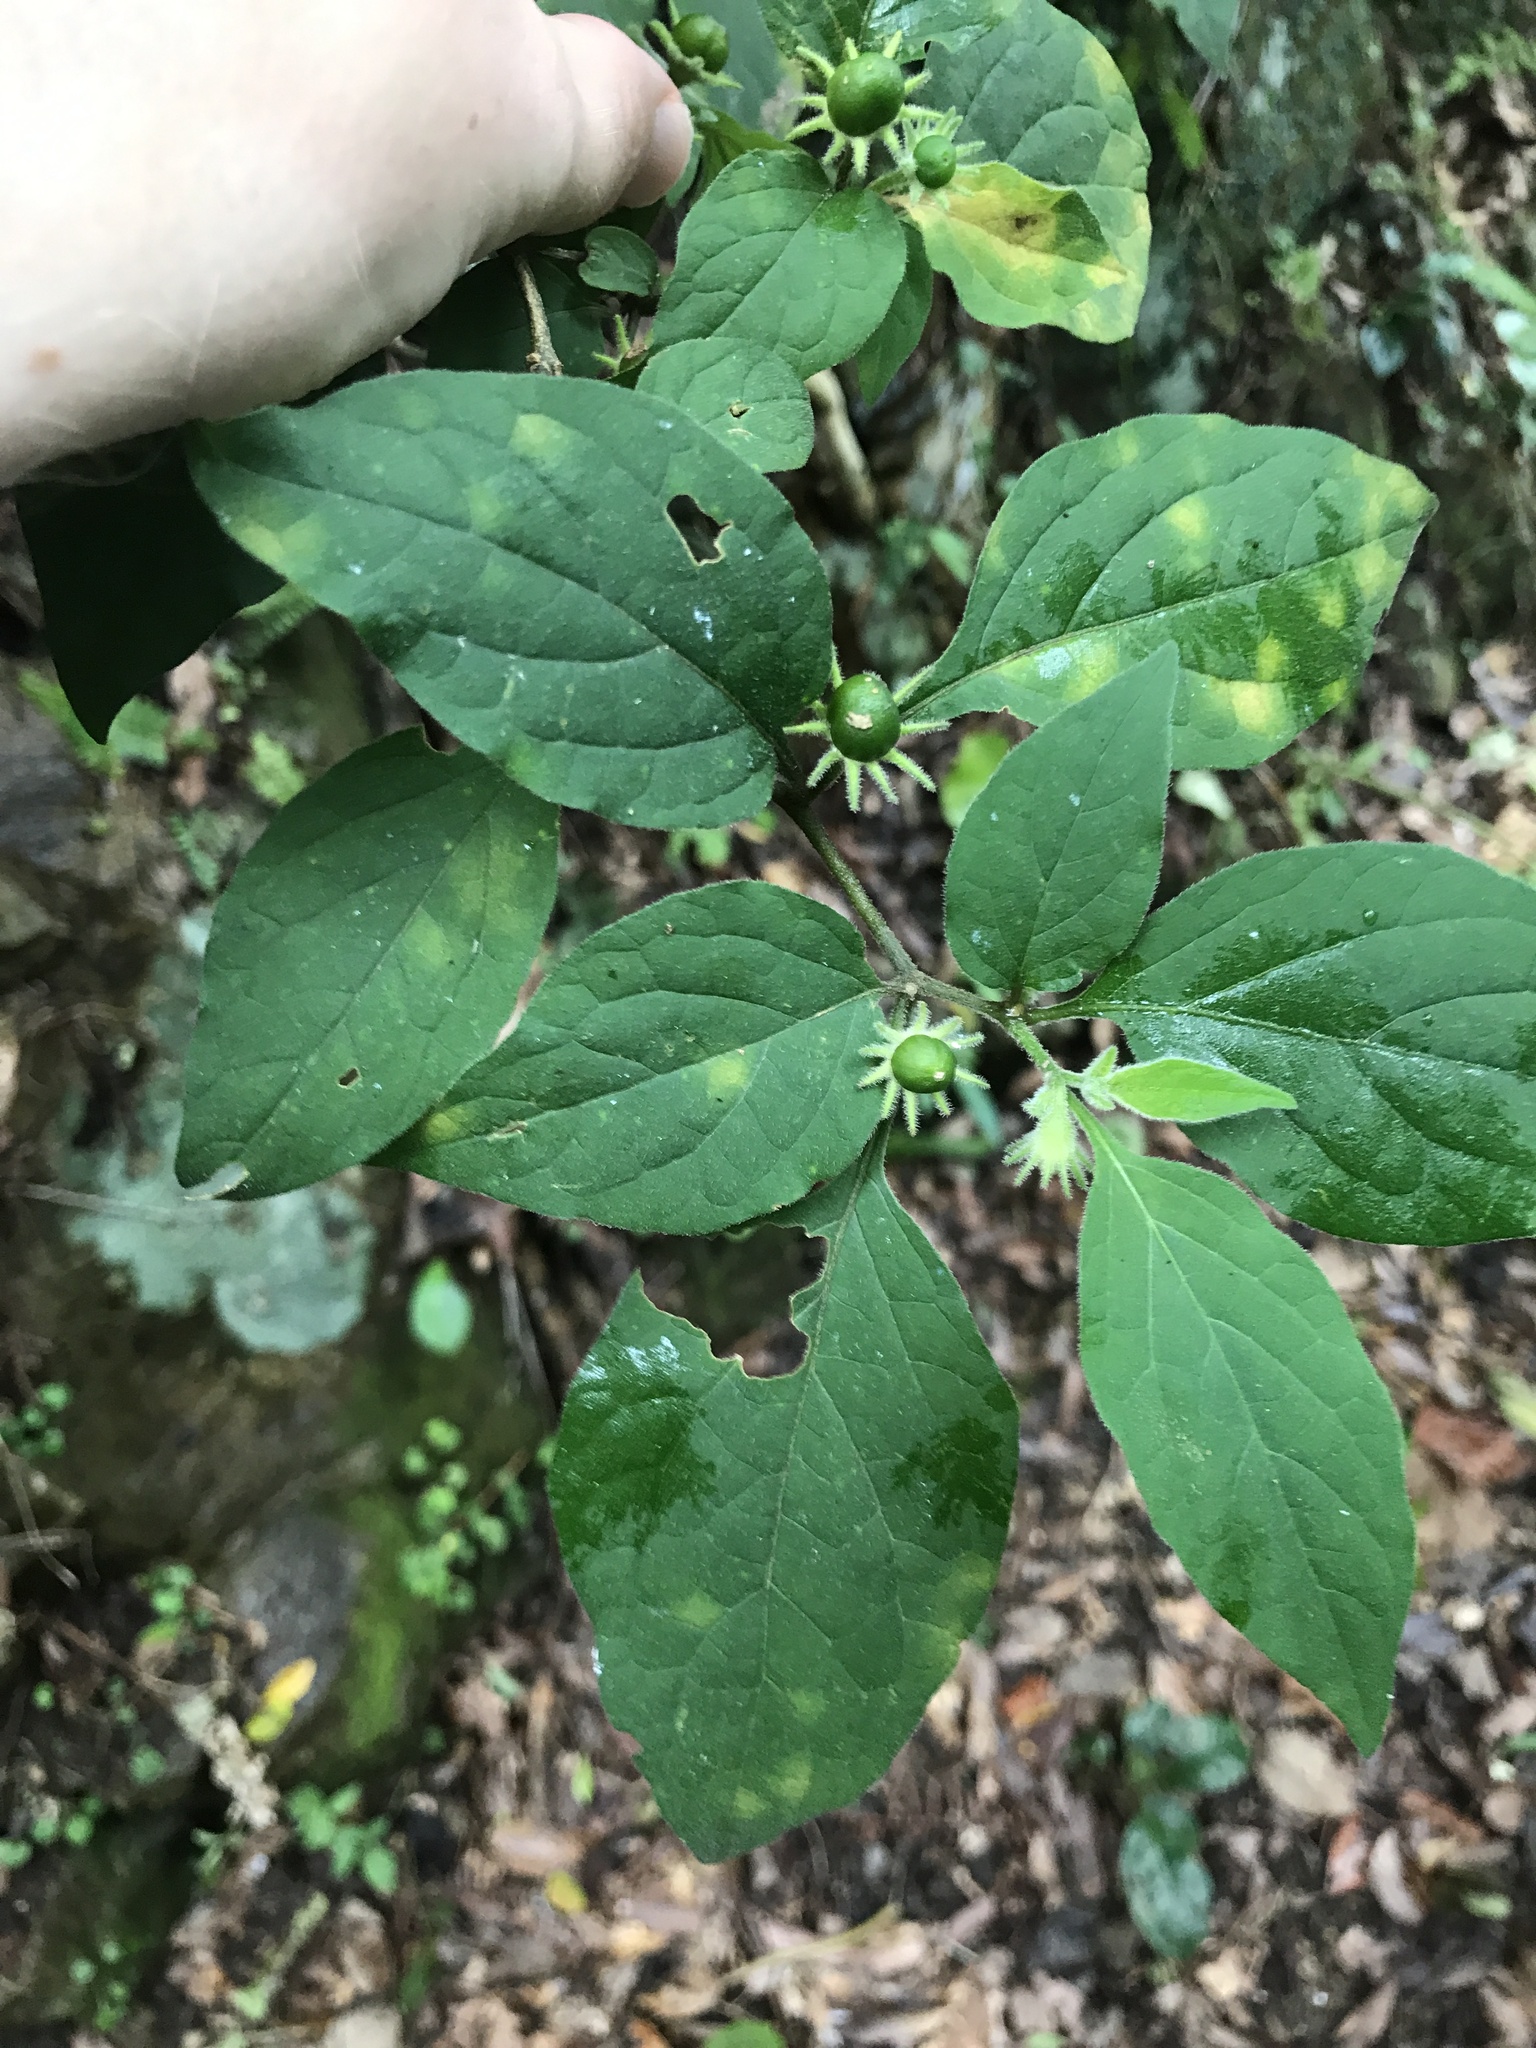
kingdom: Plantae
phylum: Tracheophyta
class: Magnoliopsida
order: Solanales
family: Solanaceae
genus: Lycianthes
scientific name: Lycianthes biflora
